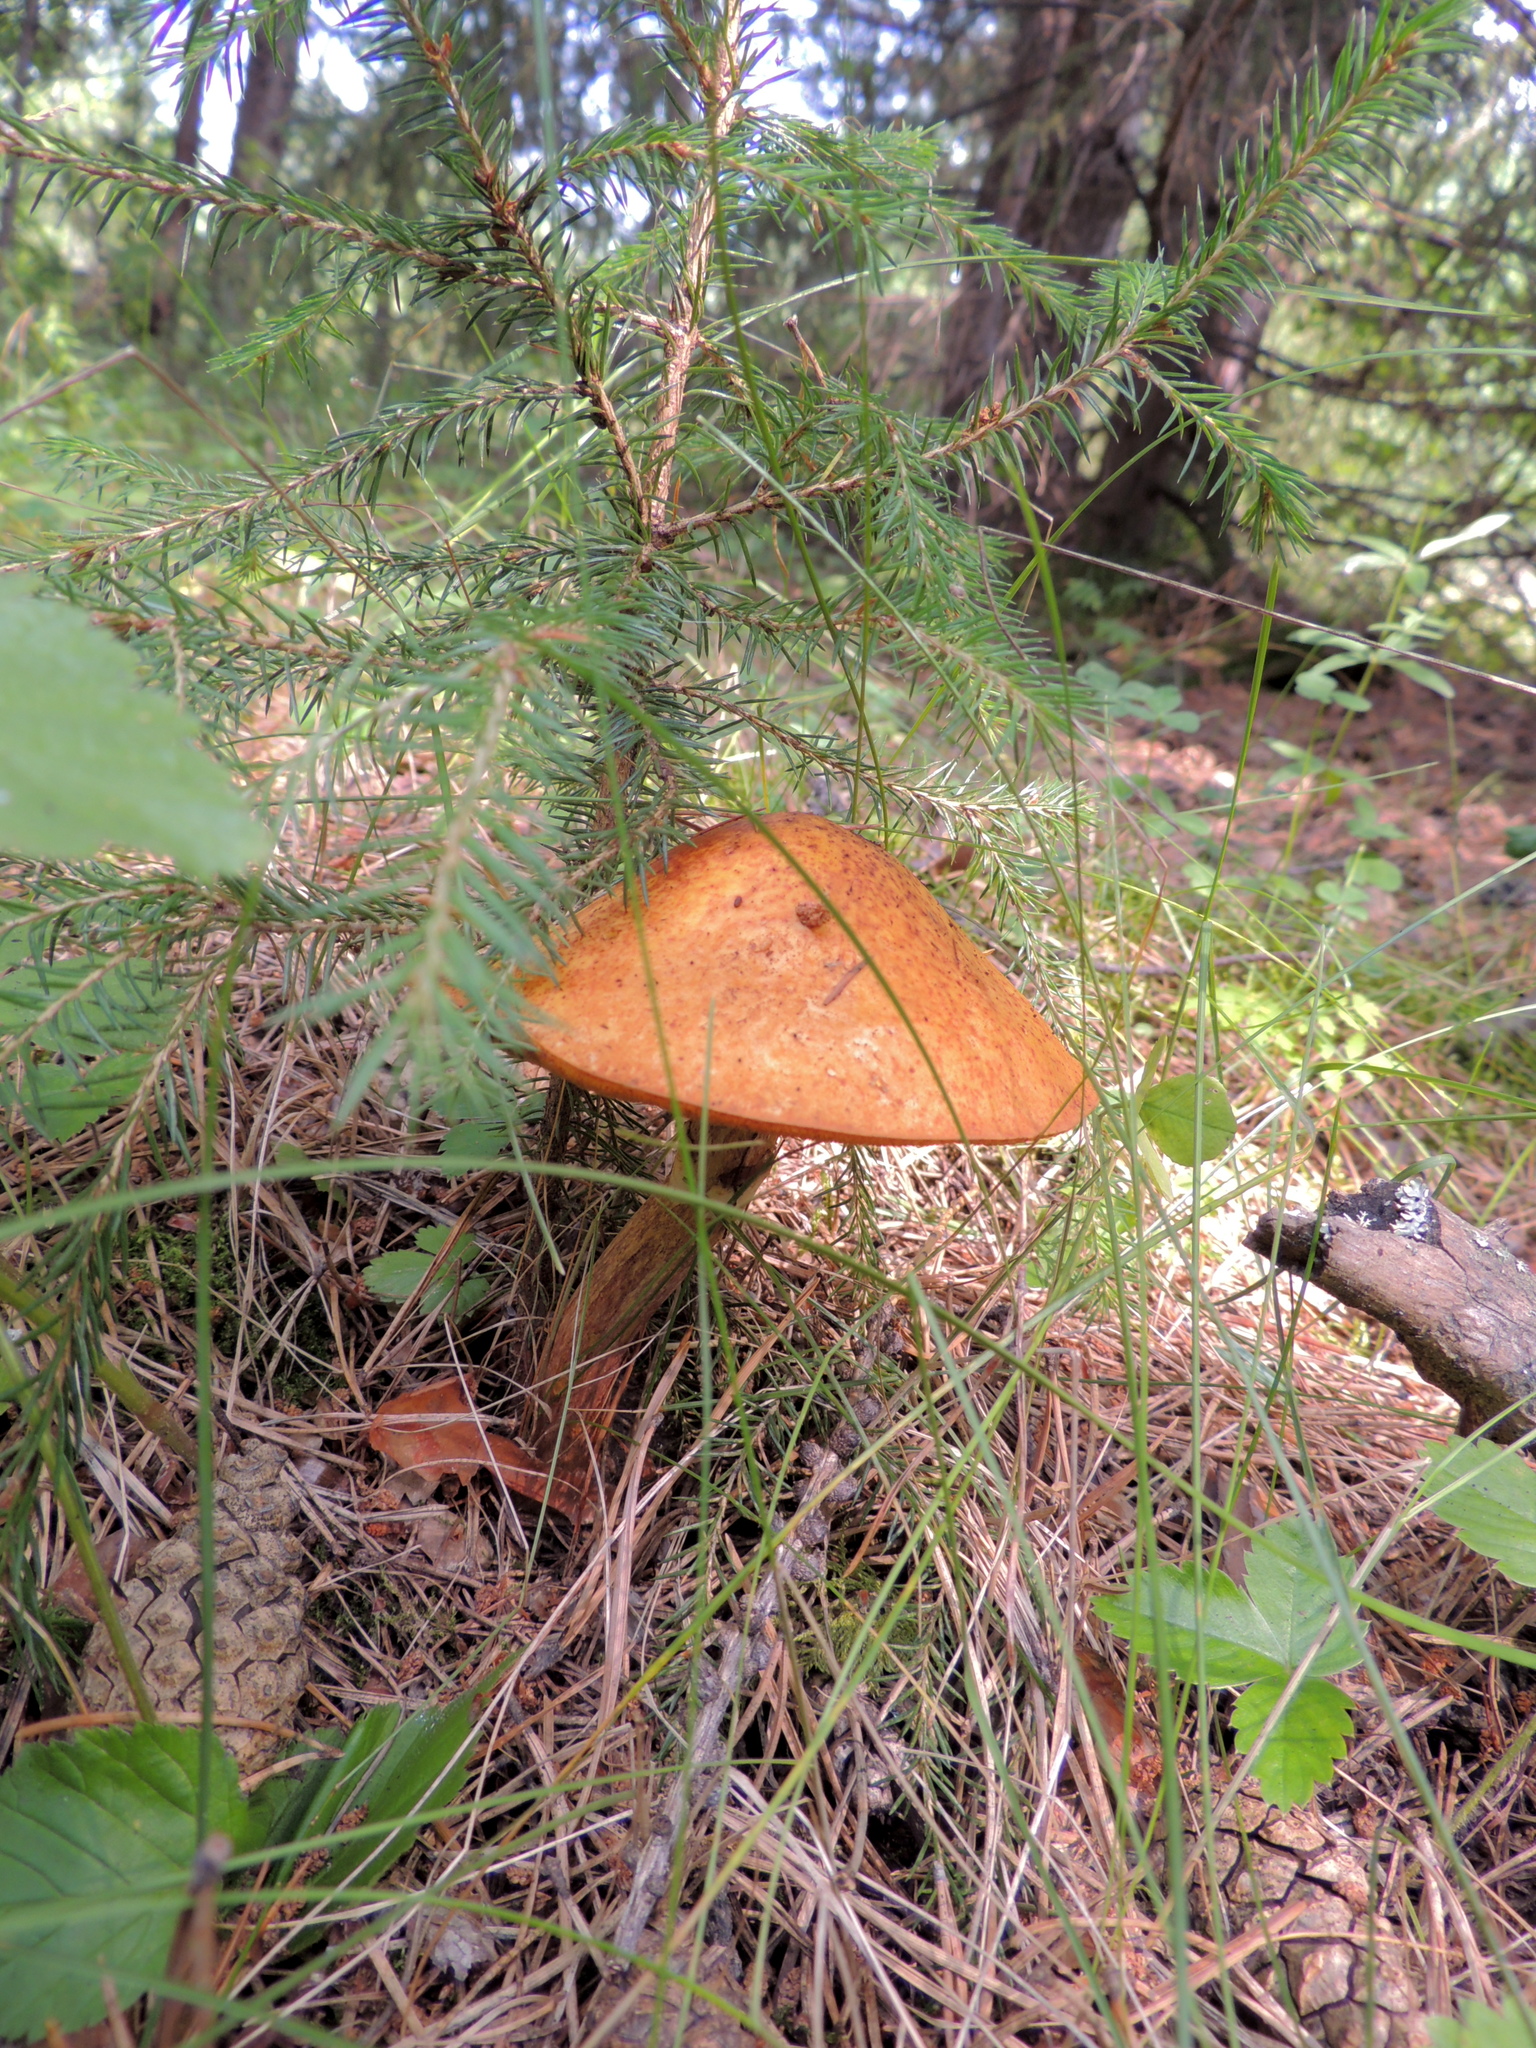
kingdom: Fungi
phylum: Basidiomycota
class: Agaricomycetes
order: Boletales
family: Boletaceae
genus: Leccinum
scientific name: Leccinum aurantiacum
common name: Orange bolete
